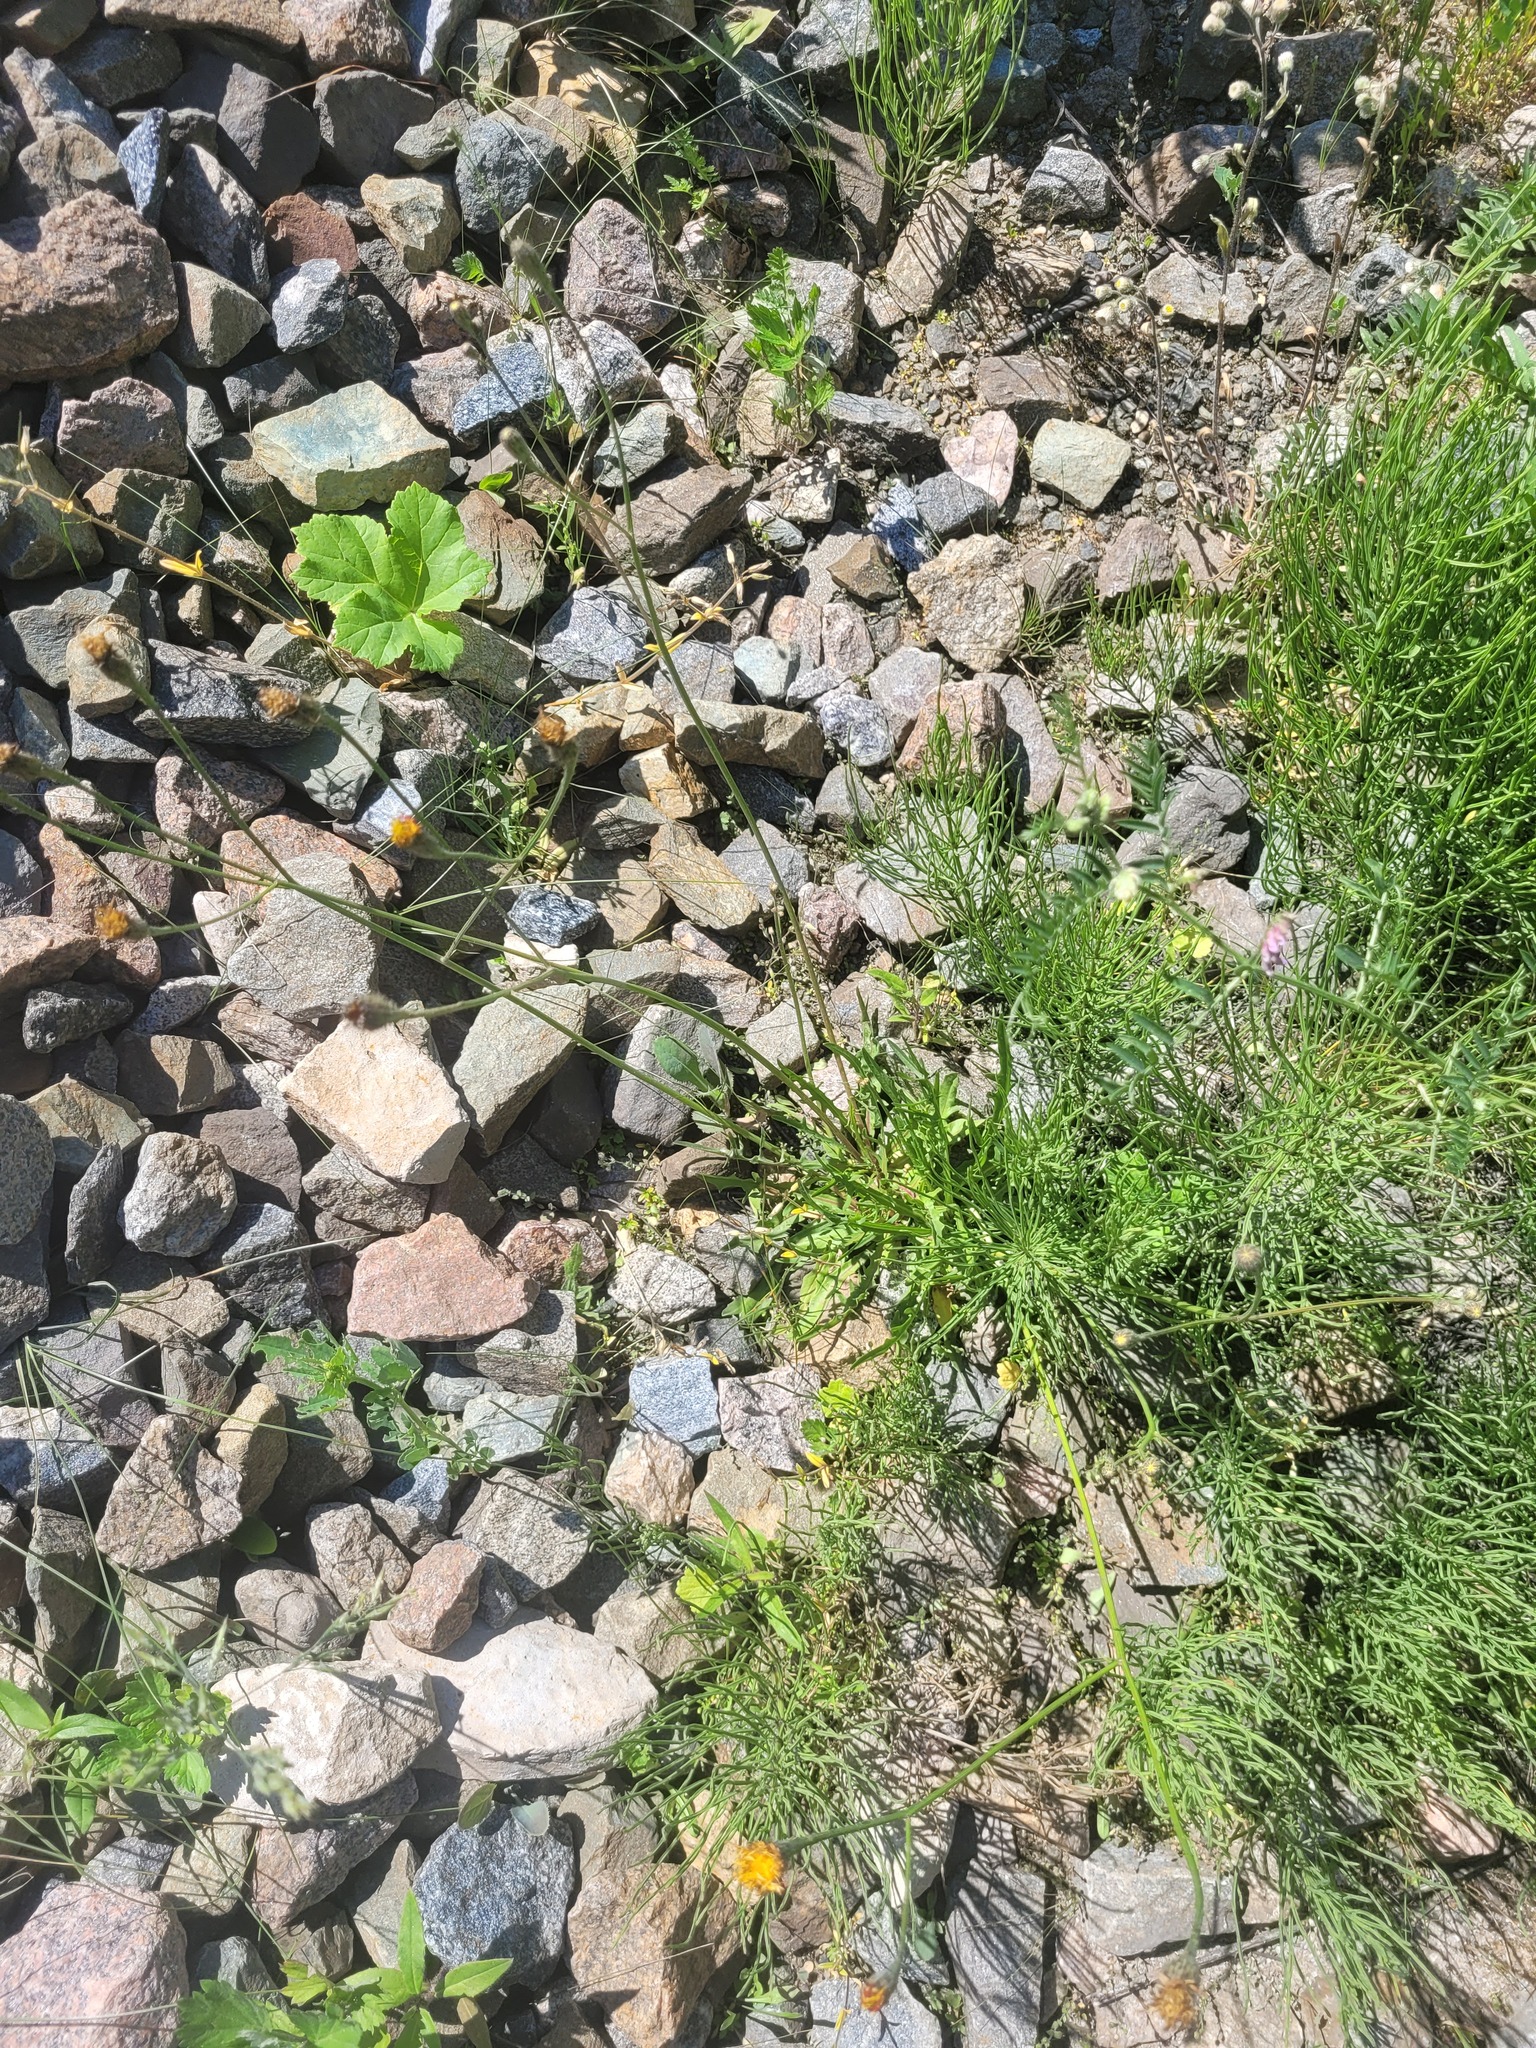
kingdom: Plantae
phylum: Tracheophyta
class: Magnoliopsida
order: Asterales
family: Asteraceae
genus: Scorzoneroides
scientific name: Scorzoneroides autumnalis
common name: Autumn hawkbit
